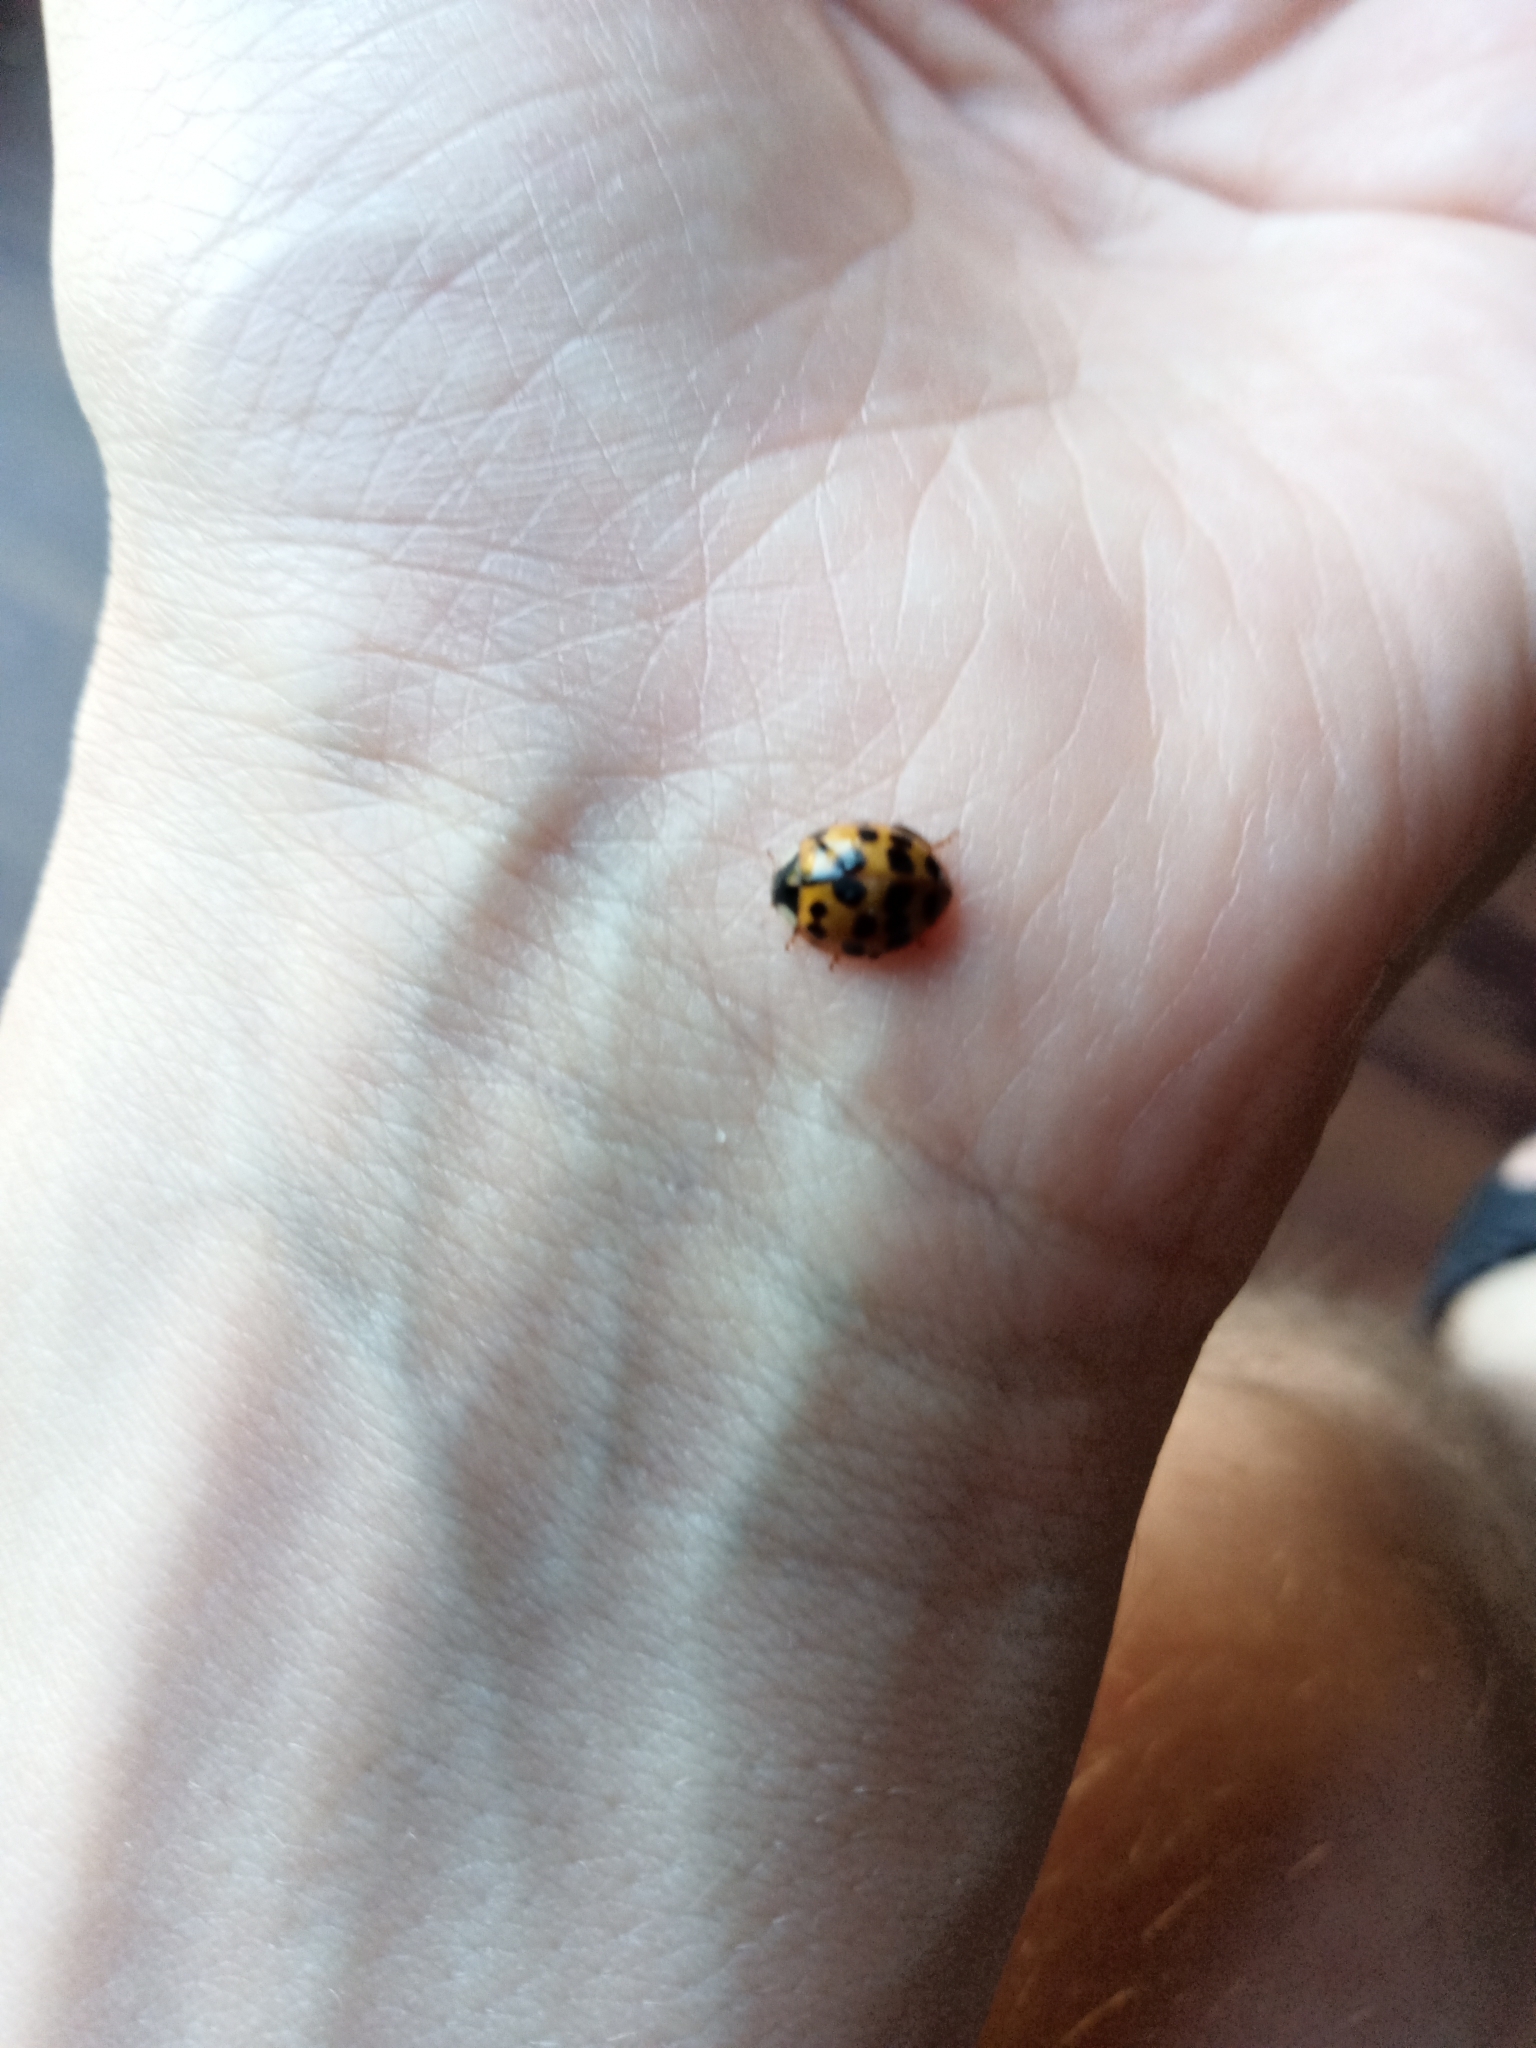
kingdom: Animalia
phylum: Arthropoda
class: Insecta
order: Coleoptera
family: Coccinellidae
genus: Harmonia
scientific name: Harmonia axyridis
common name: Harlequin ladybird
